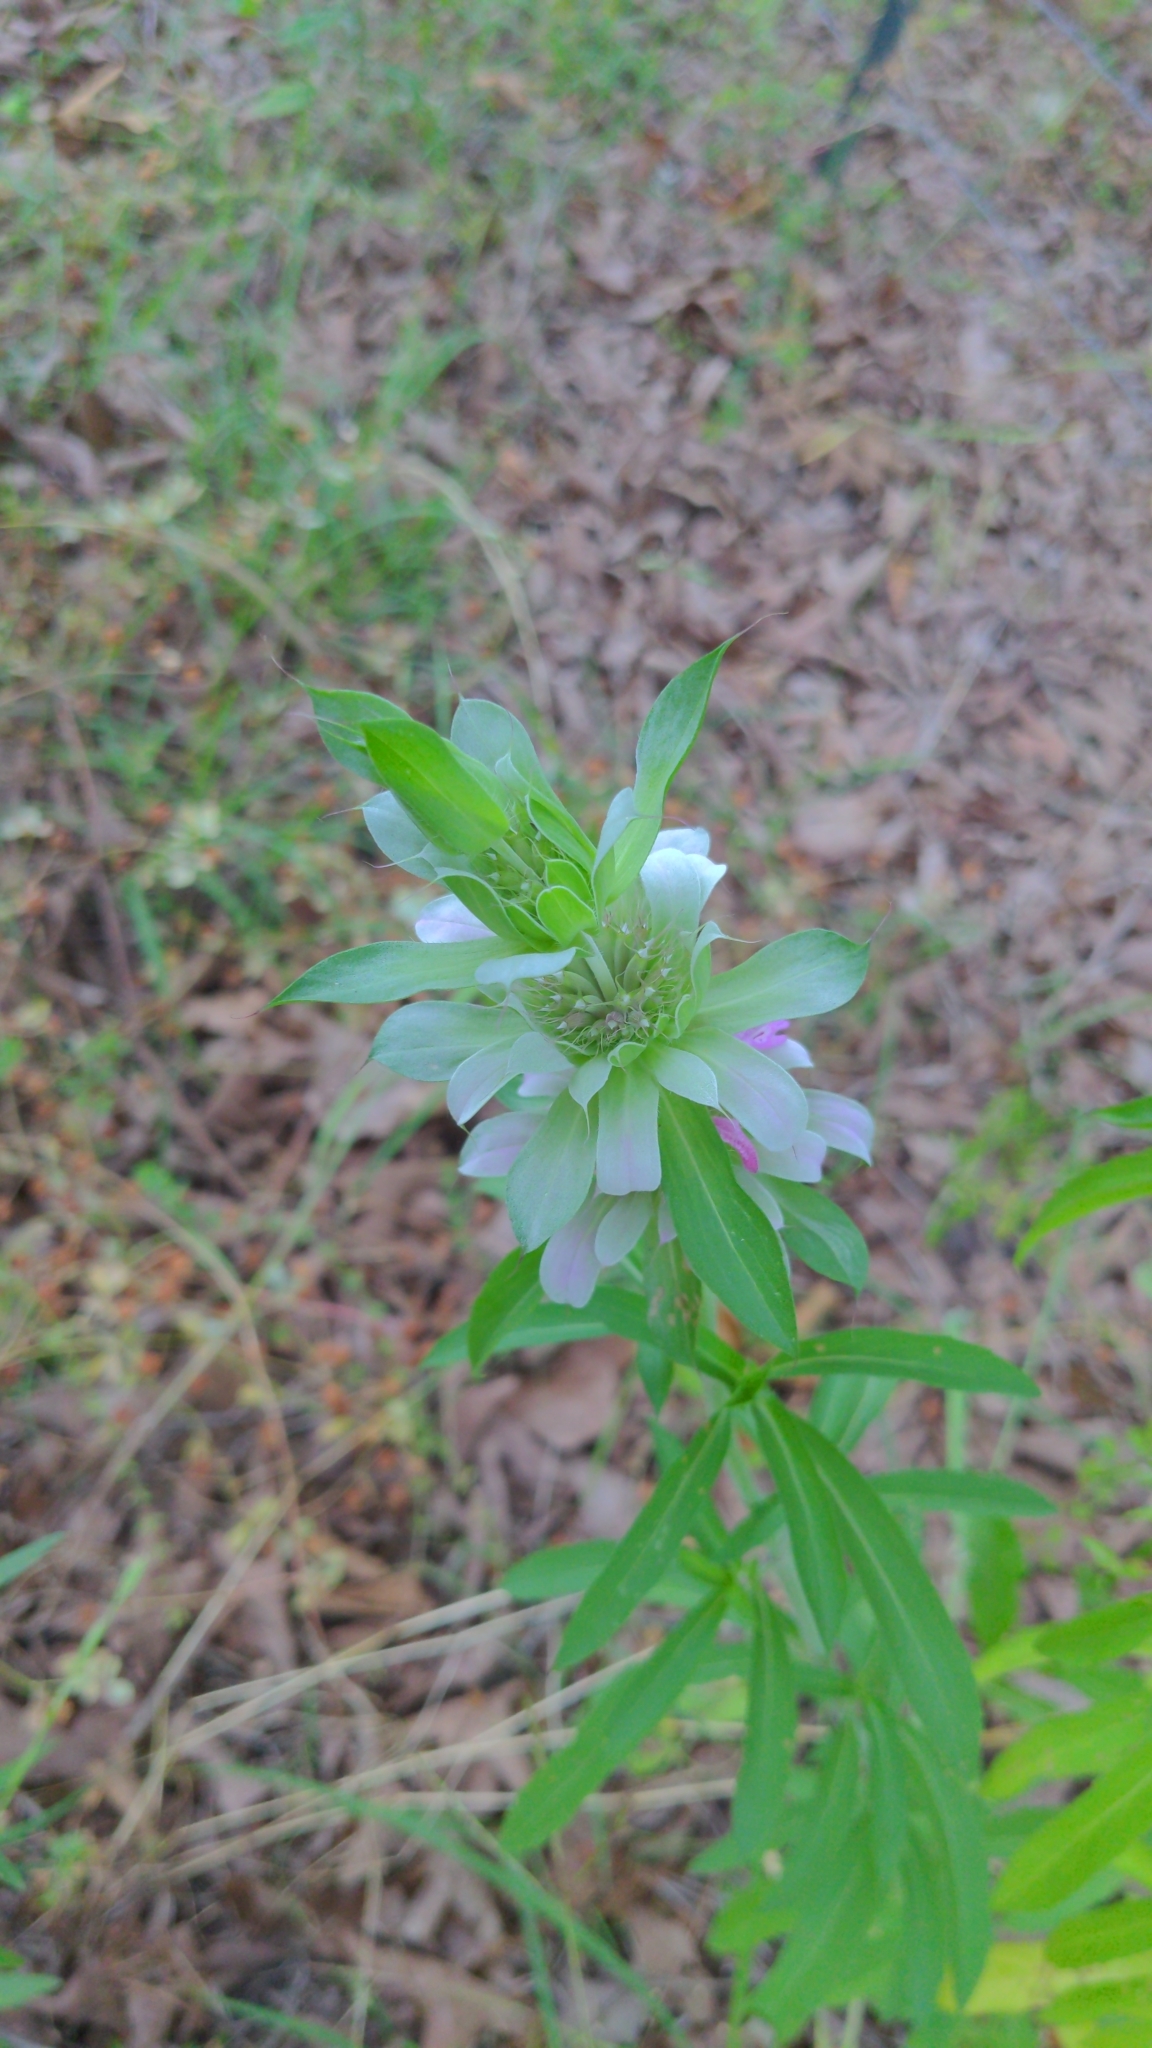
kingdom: Plantae
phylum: Tracheophyta
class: Magnoliopsida
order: Lamiales
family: Lamiaceae
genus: Monarda
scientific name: Monarda citriodora
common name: Lemon beebalm
